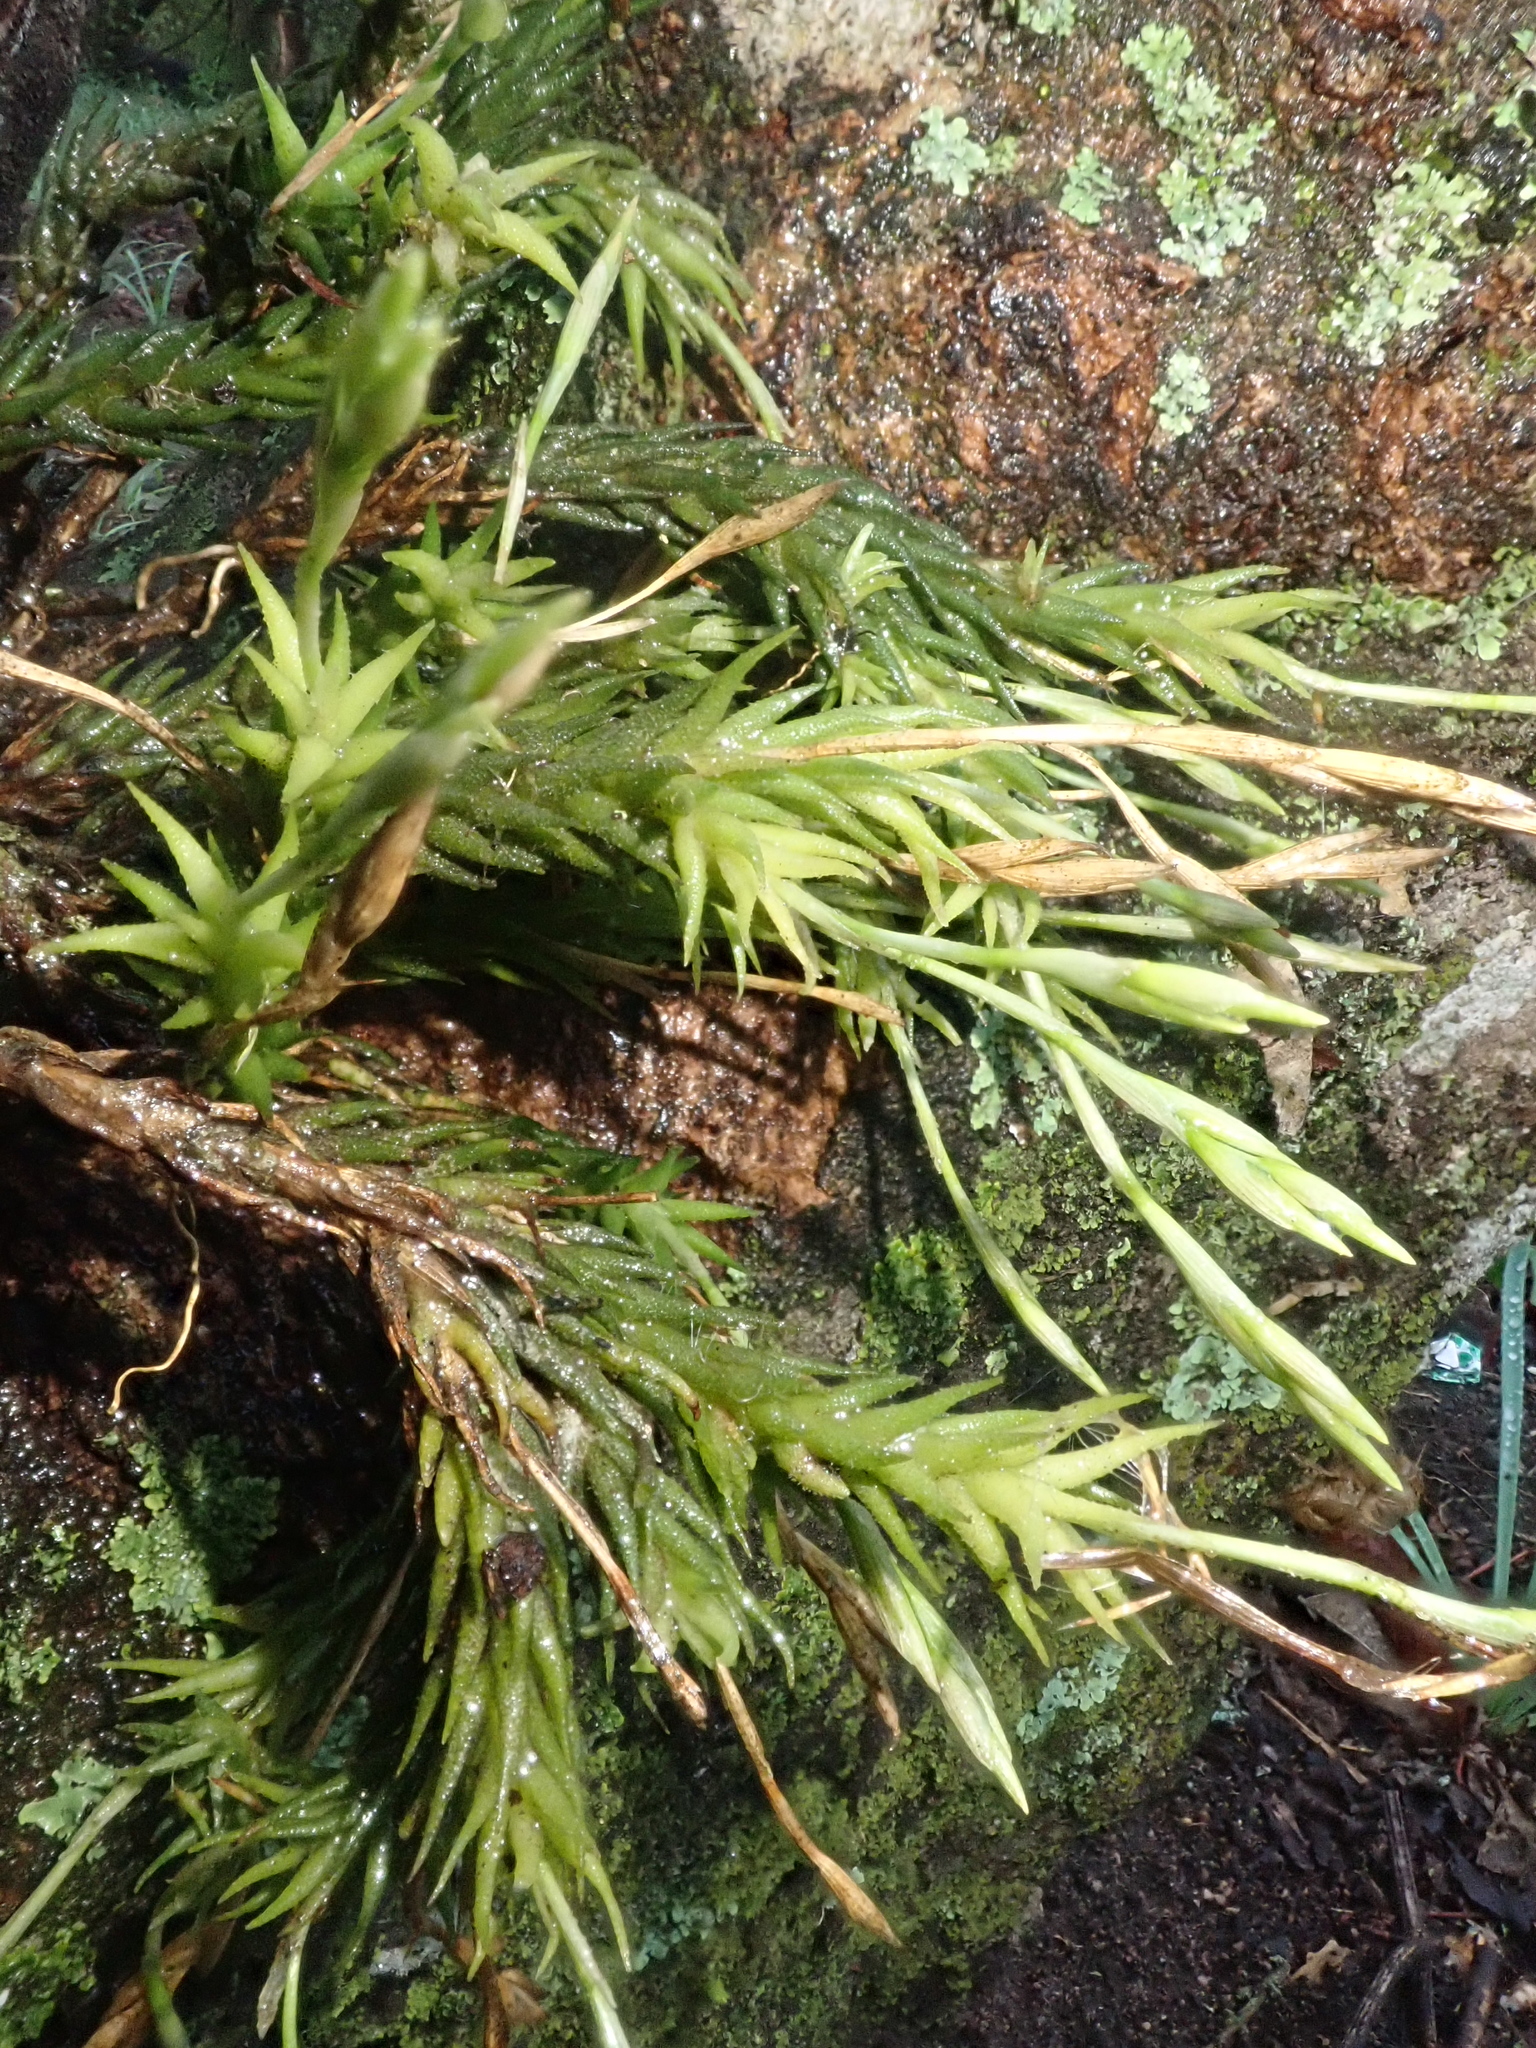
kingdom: Plantae
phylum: Tracheophyta
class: Liliopsida
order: Poales
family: Bromeliaceae
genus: Tillandsia
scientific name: Tillandsia tricholepis
